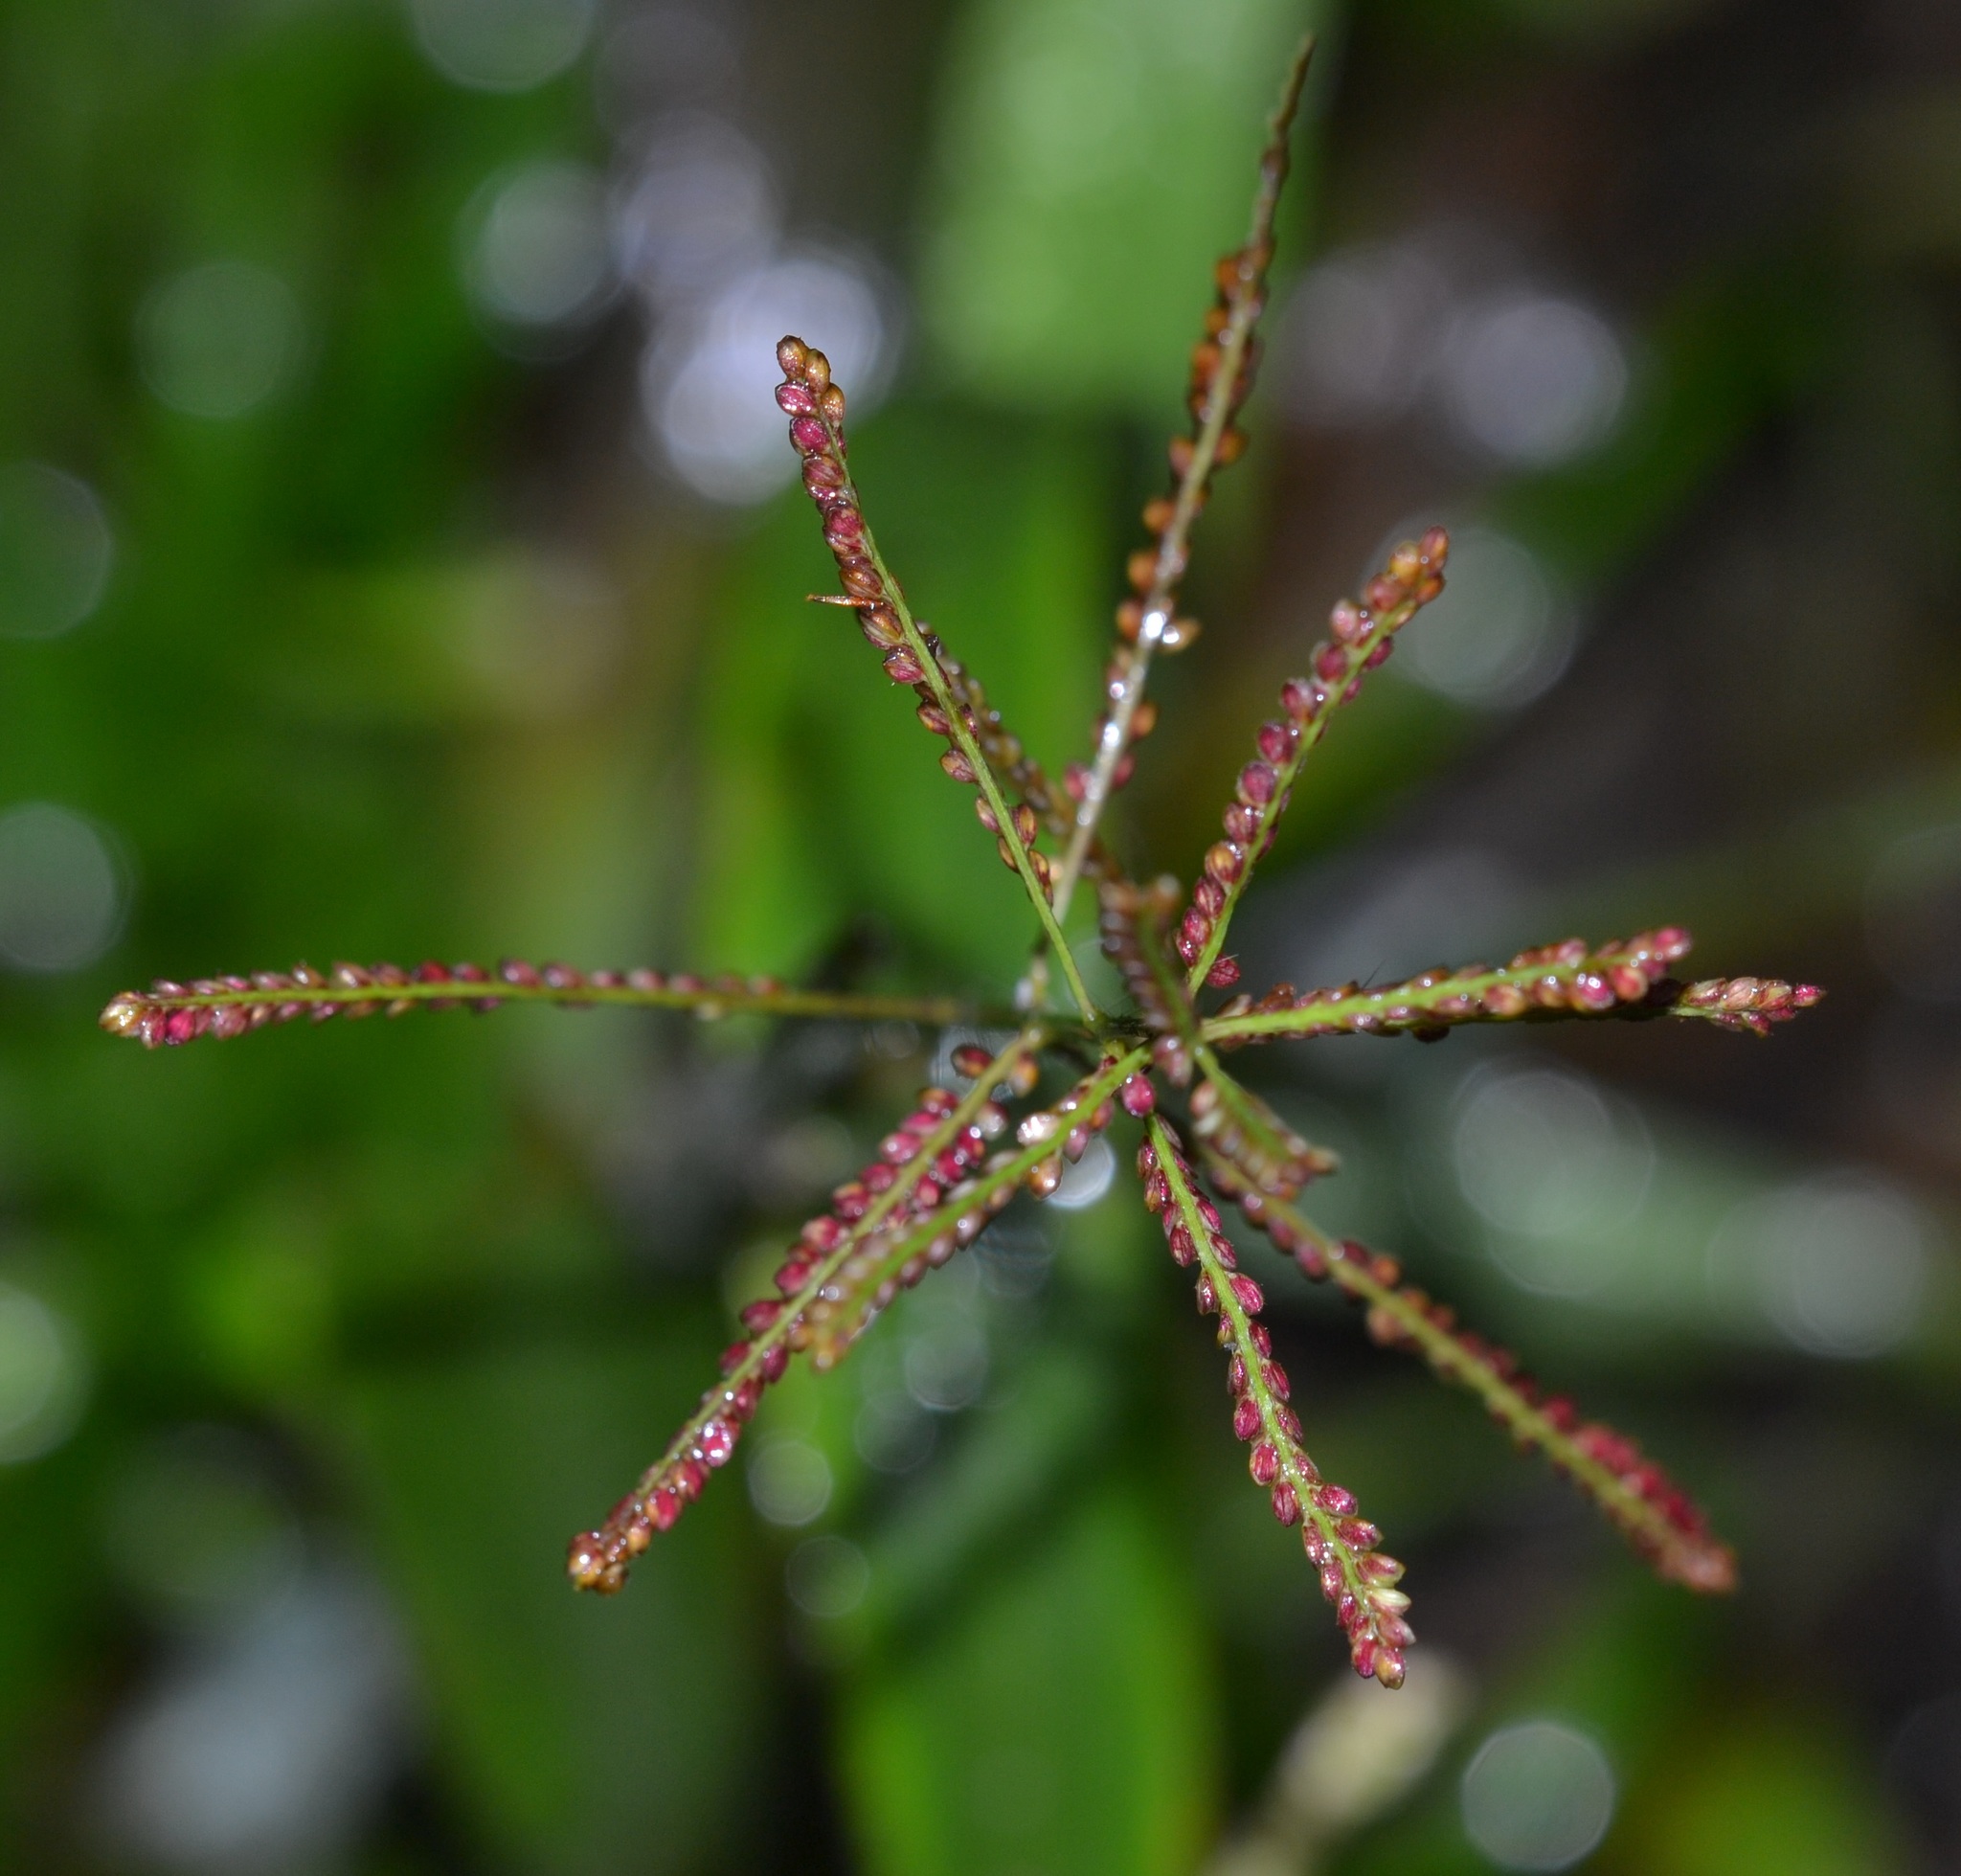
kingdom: Plantae
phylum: Tracheophyta
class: Liliopsida
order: Poales
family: Poaceae
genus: Paspalum
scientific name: Paspalum paniculatum
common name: Arrocillo
